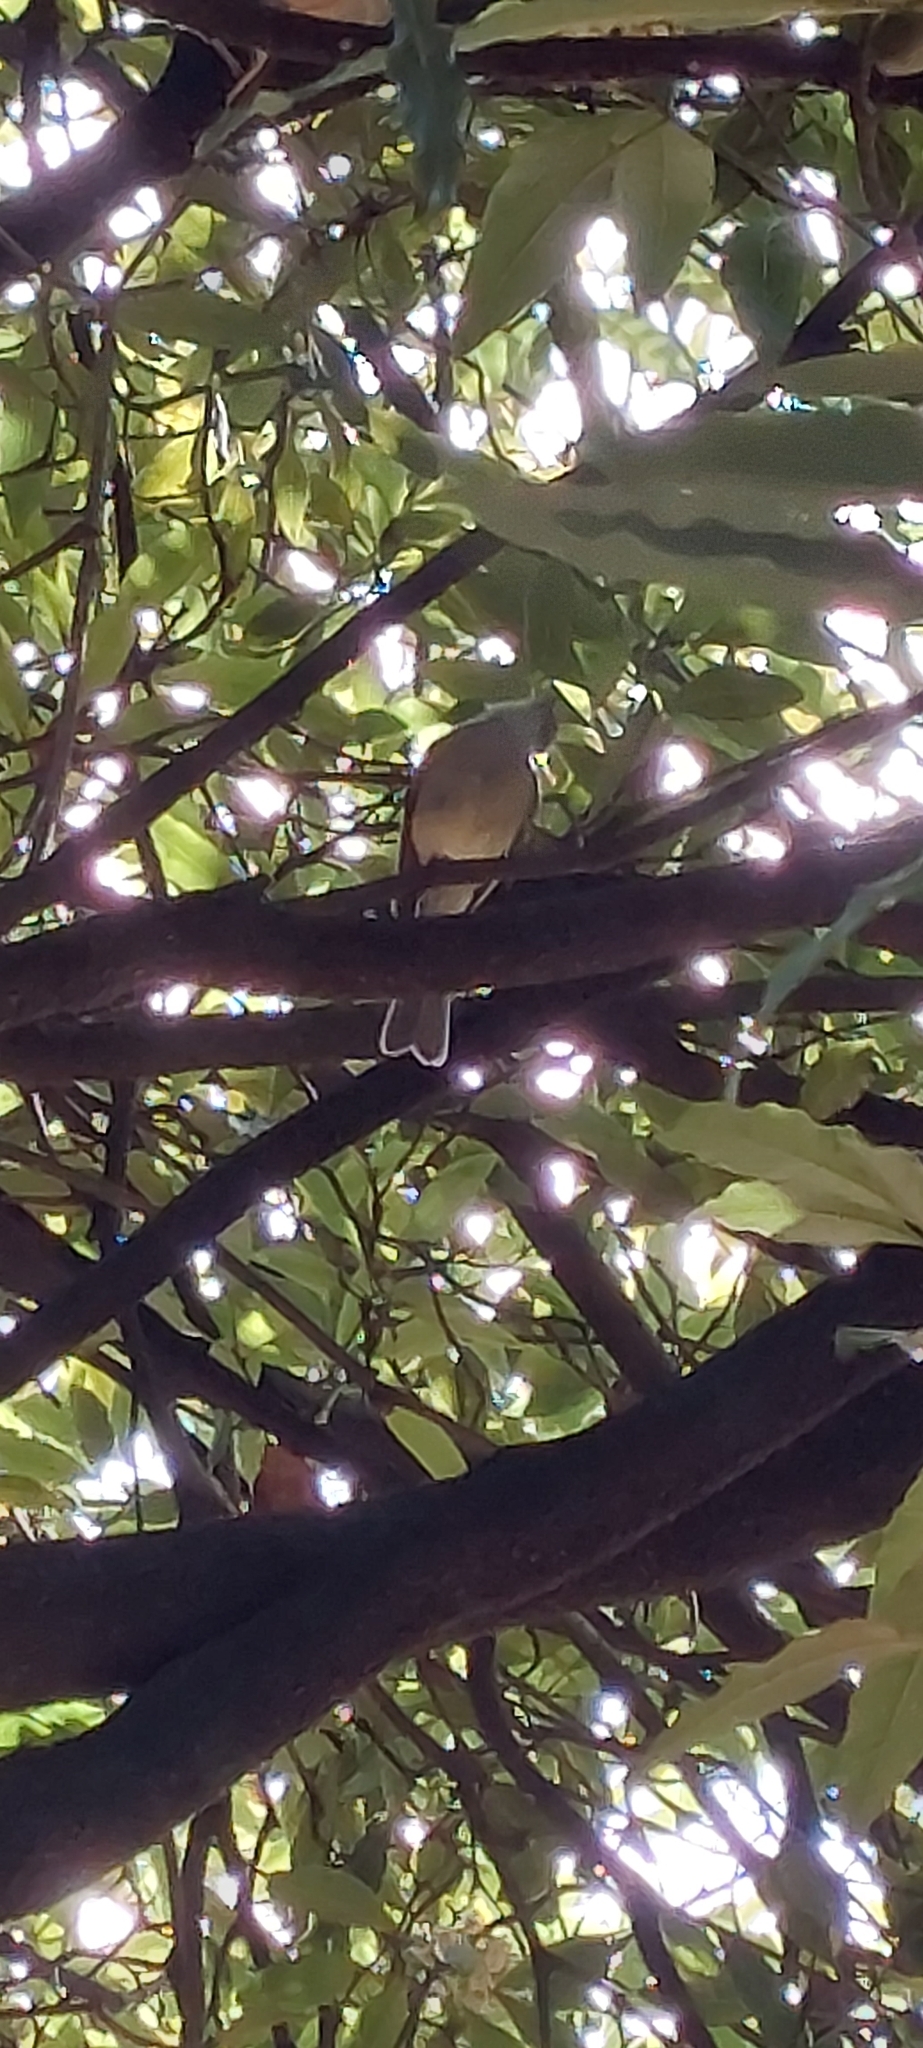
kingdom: Animalia
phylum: Chordata
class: Aves
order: Passeriformes
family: Tyrannidae
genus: Mecocerculus
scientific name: Mecocerculus leucophrys
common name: White-throated tyrannulet
